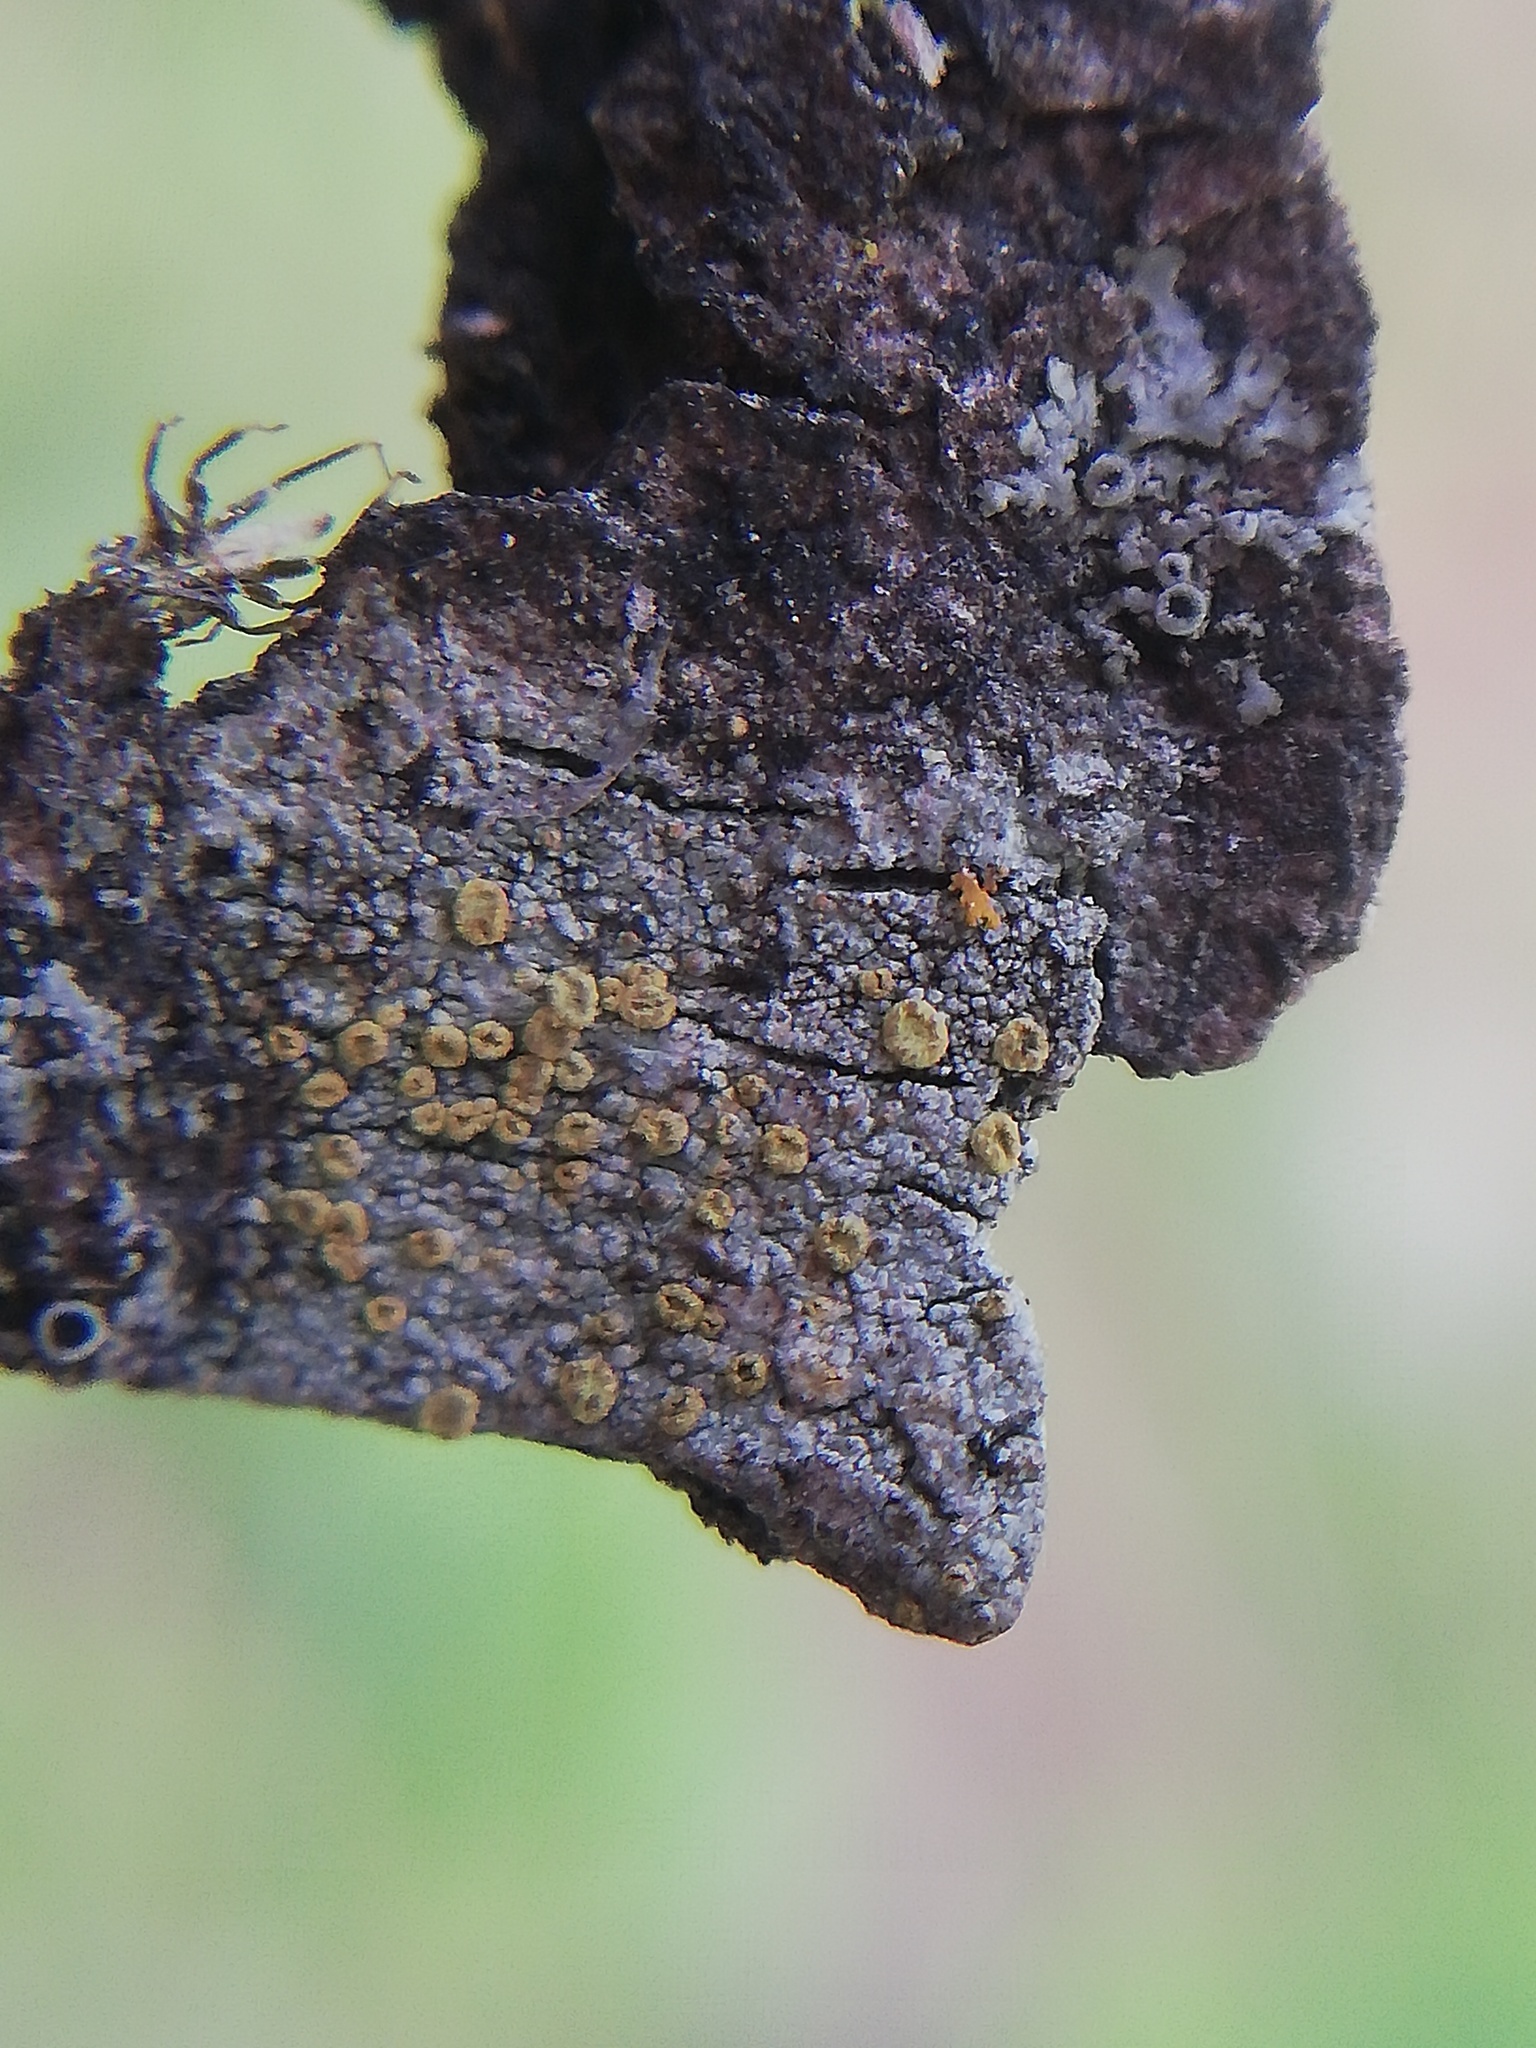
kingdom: Fungi
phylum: Ascomycota
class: Lecanoromycetes
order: Lecanorales
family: Lecanoraceae
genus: Lecanora
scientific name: Lecanora fulvastra
